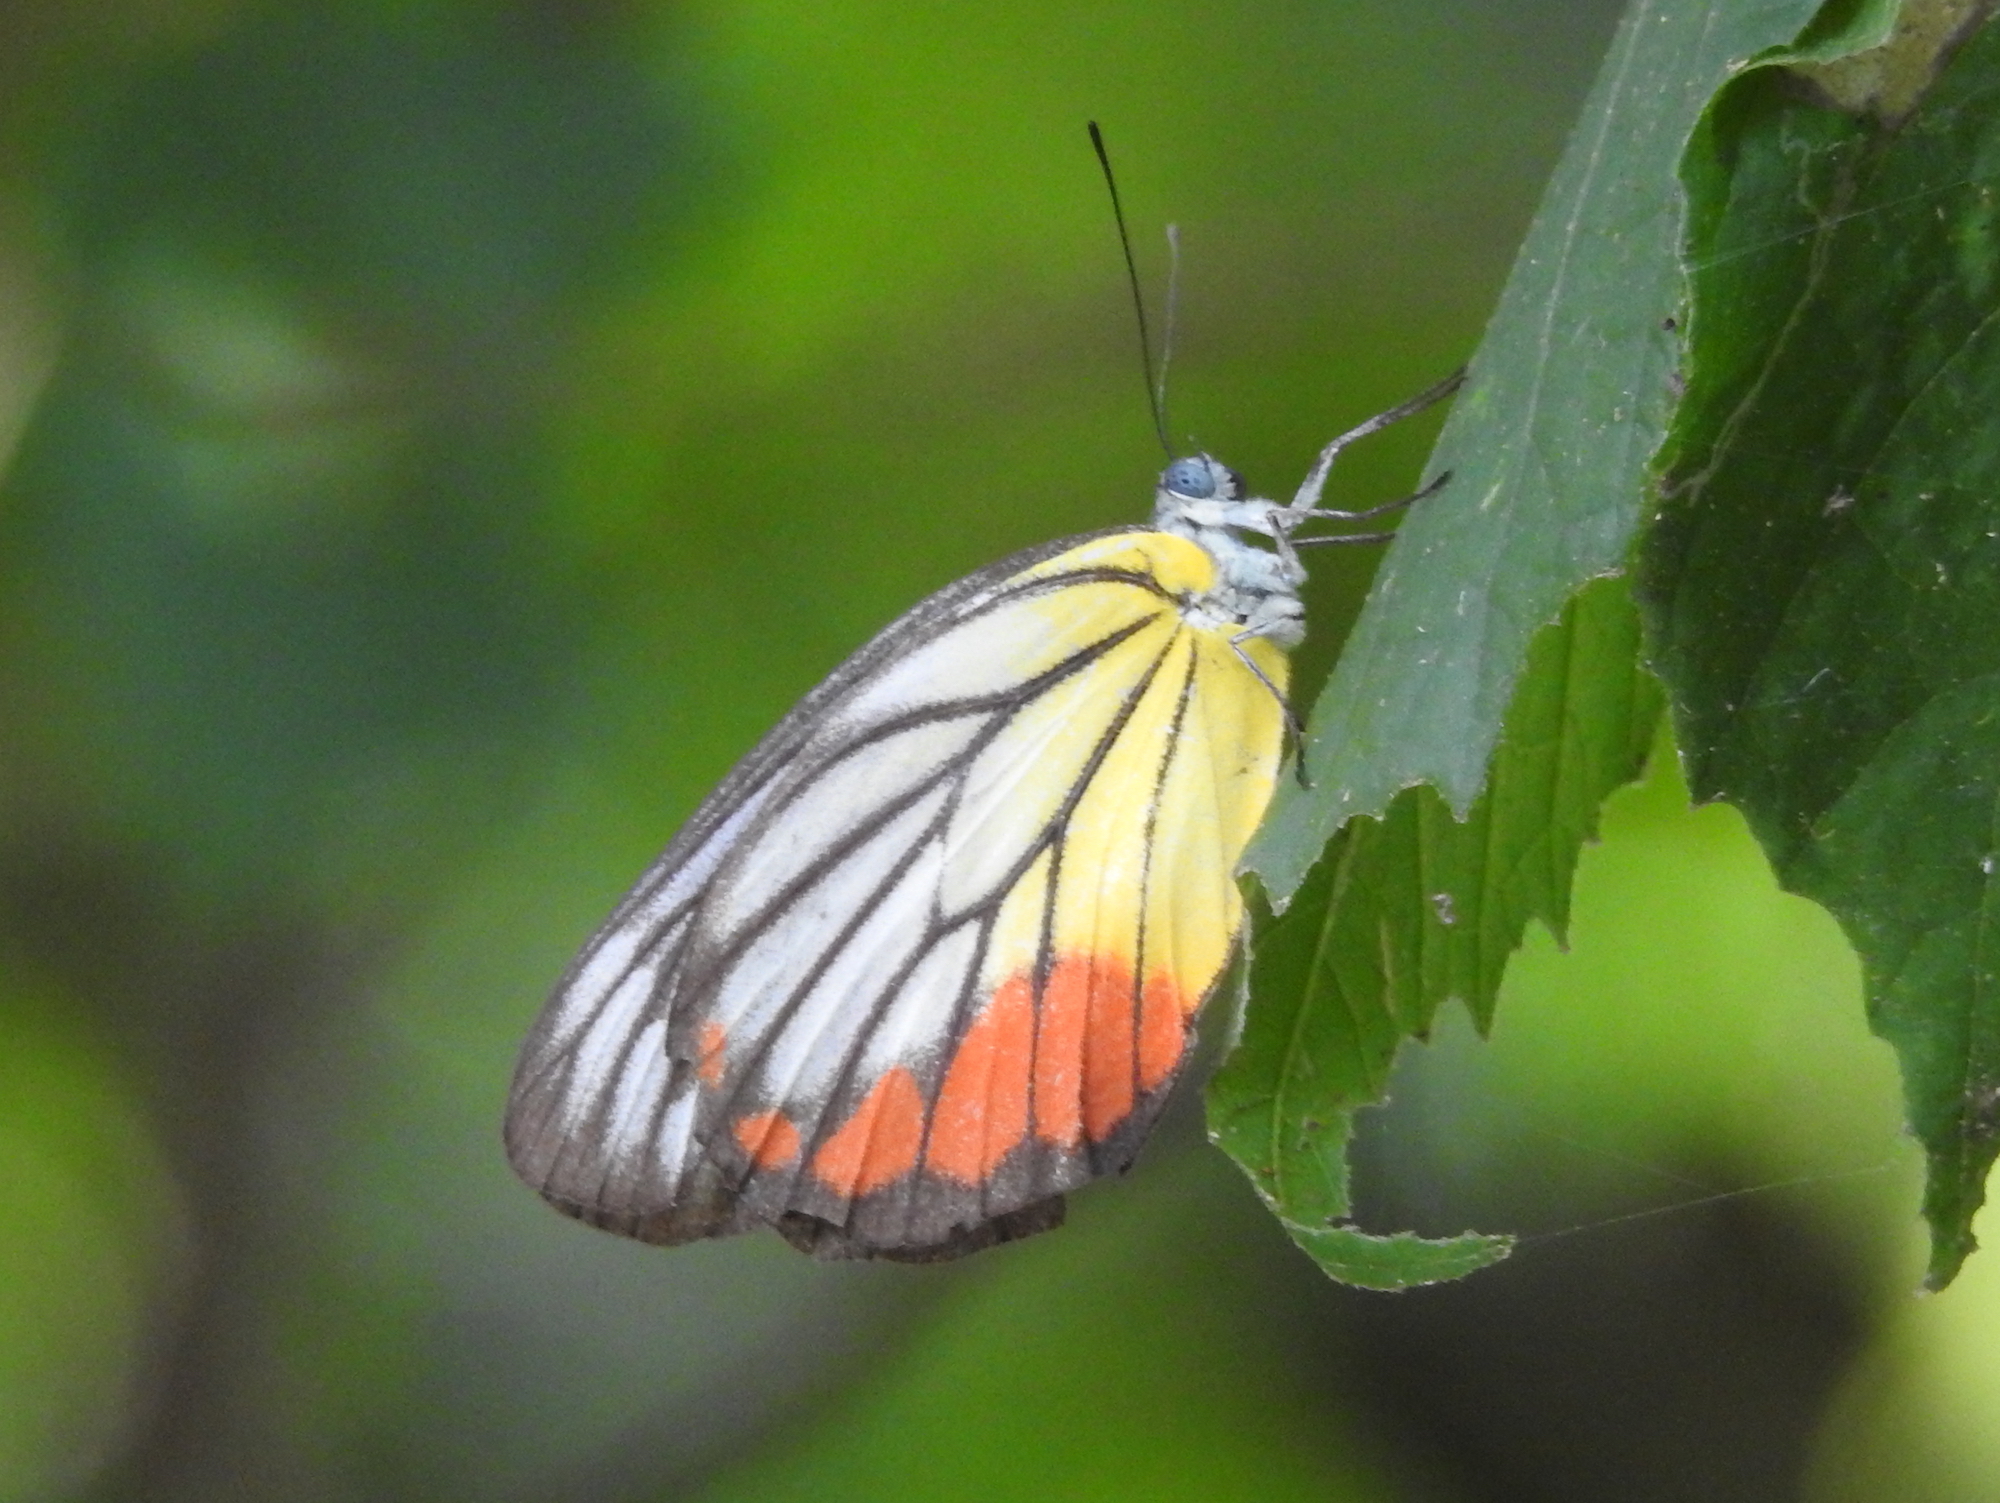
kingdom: Animalia
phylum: Arthropoda
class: Insecta
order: Lepidoptera
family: Pieridae
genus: Delias
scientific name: Delias hyparete
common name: Painted jezebel
